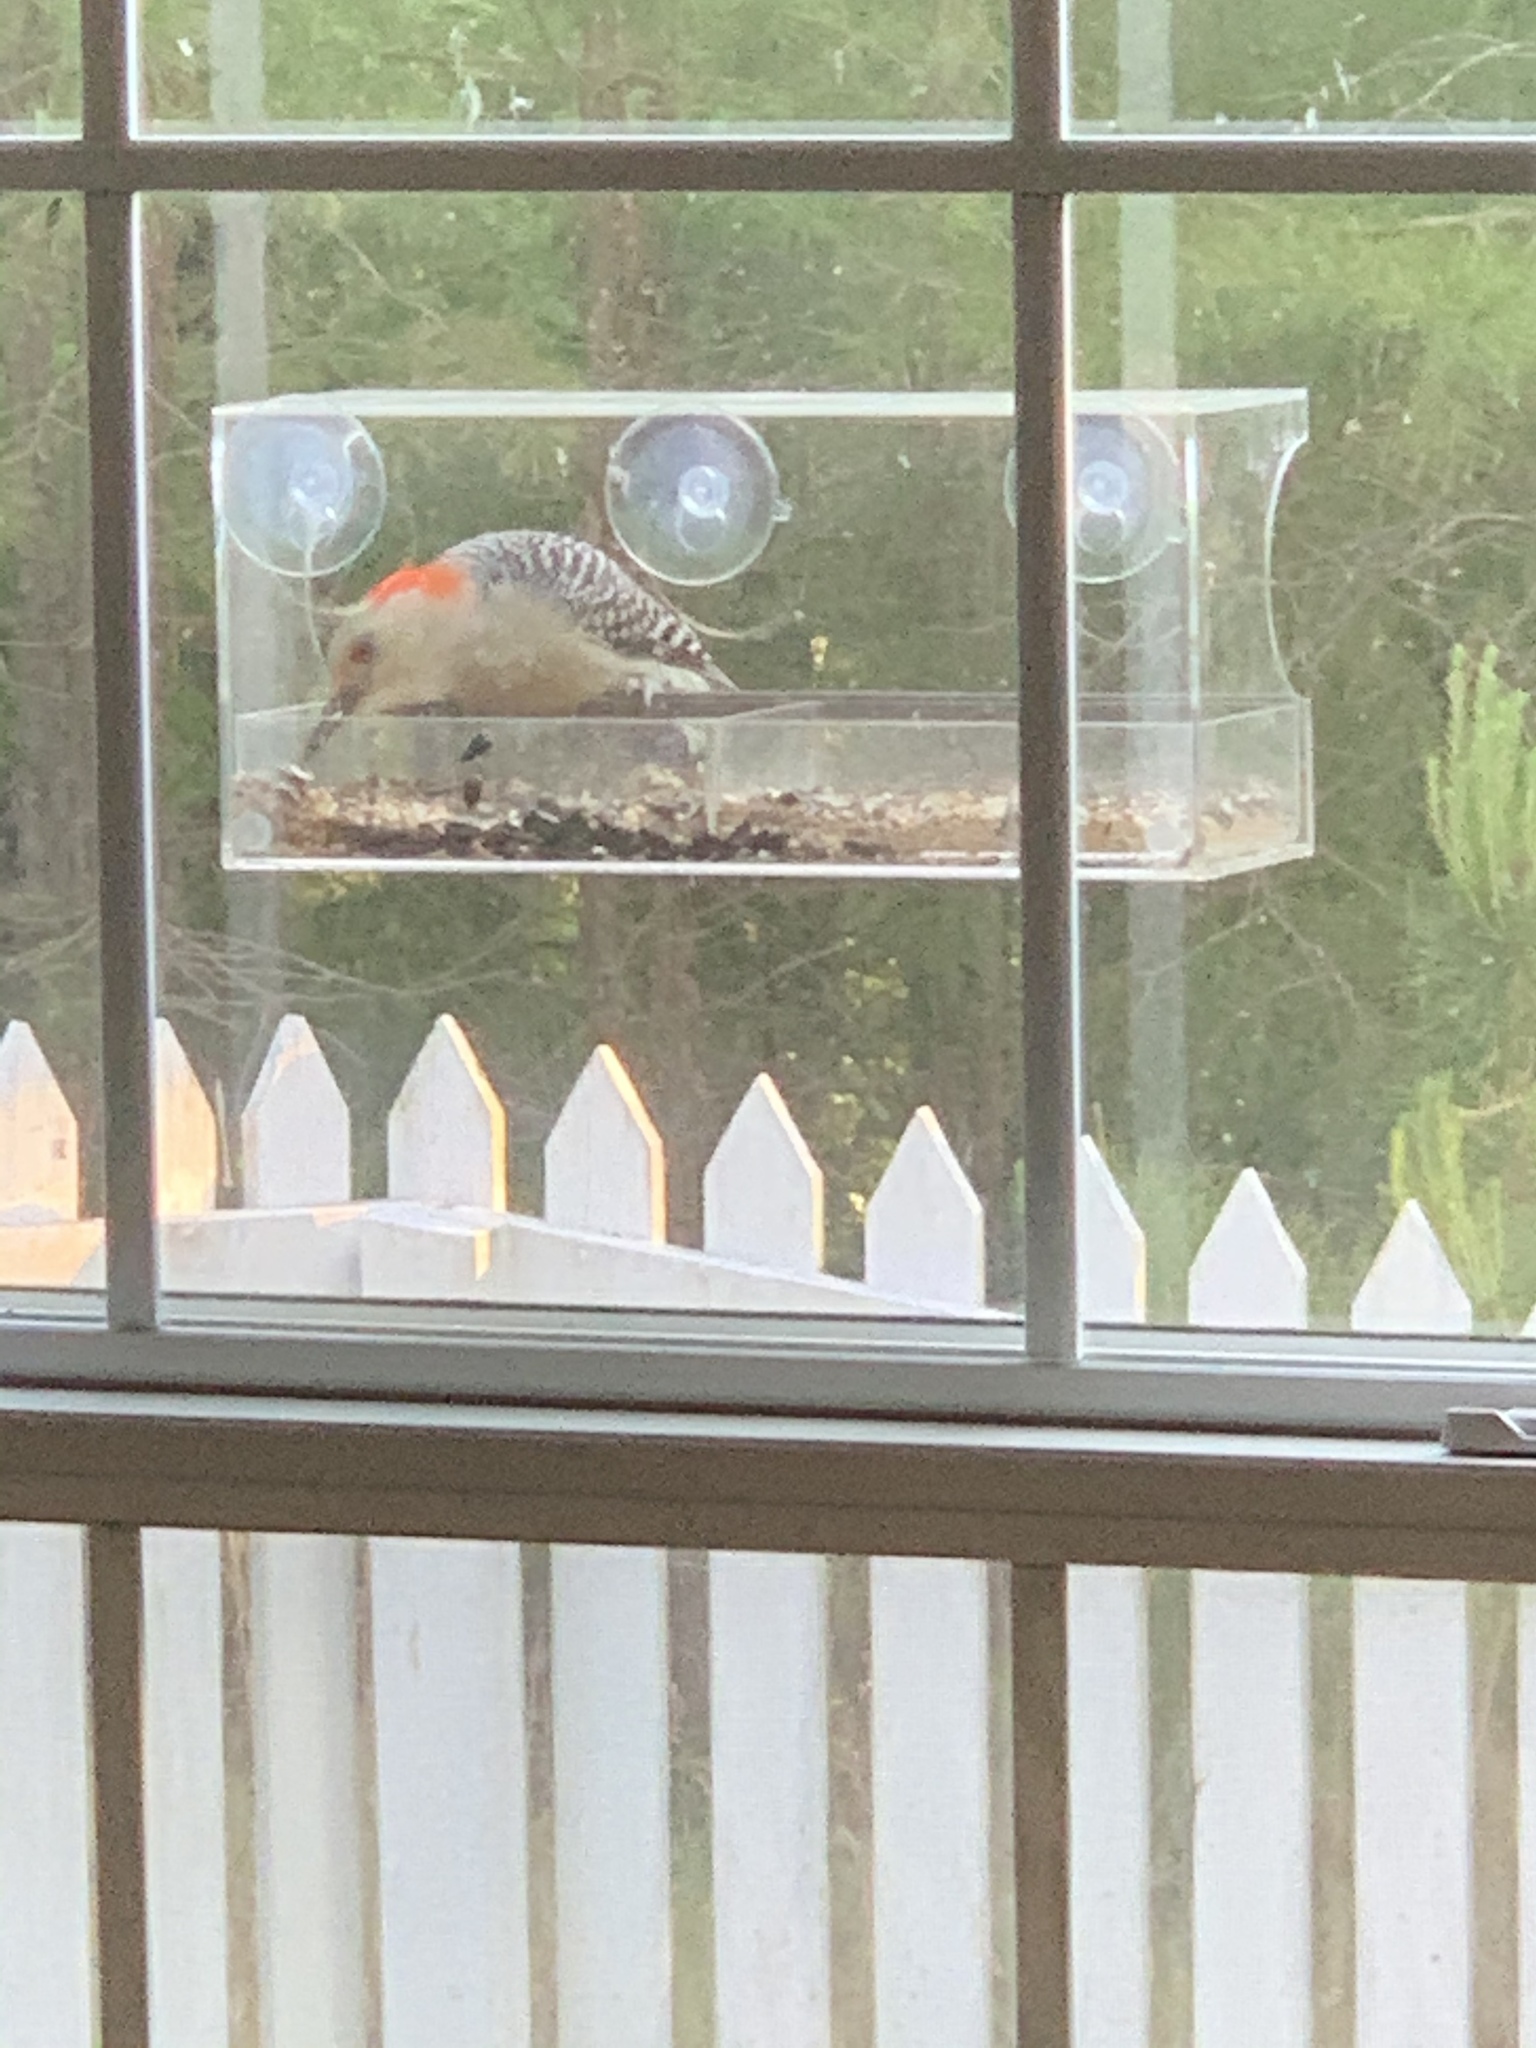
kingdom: Animalia
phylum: Chordata
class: Aves
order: Piciformes
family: Picidae
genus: Melanerpes
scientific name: Melanerpes carolinus
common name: Red-bellied woodpecker
